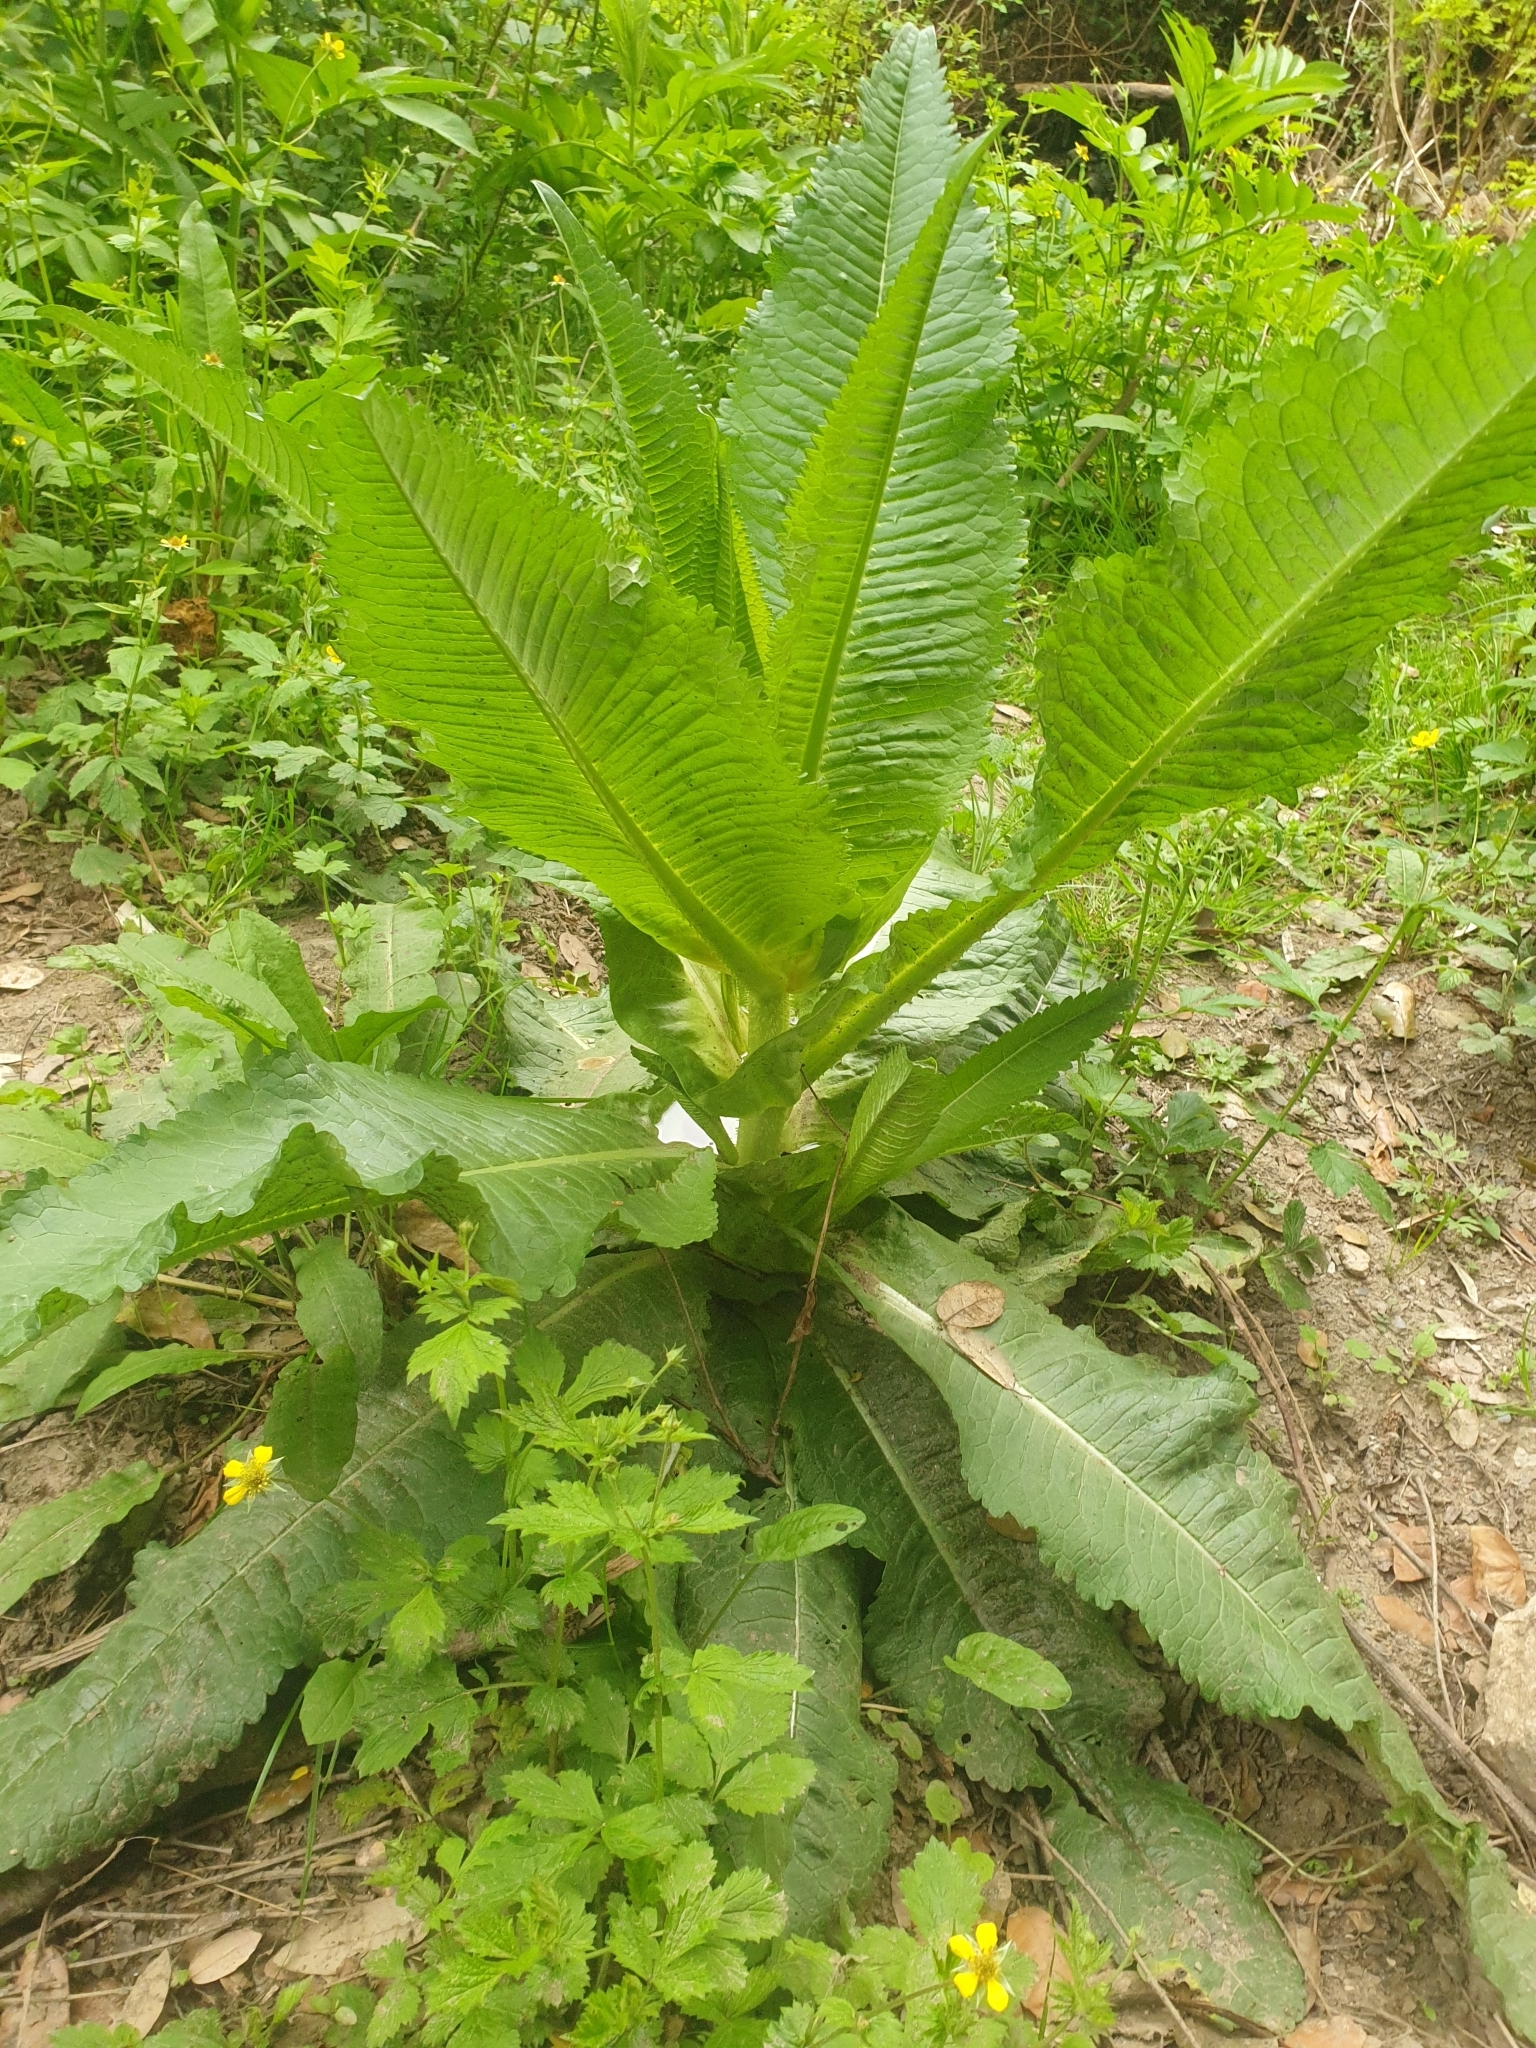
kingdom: Plantae
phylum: Tracheophyta
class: Magnoliopsida
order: Dipsacales
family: Caprifoliaceae
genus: Dipsacus
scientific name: Dipsacus fullonum
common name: Teasel
